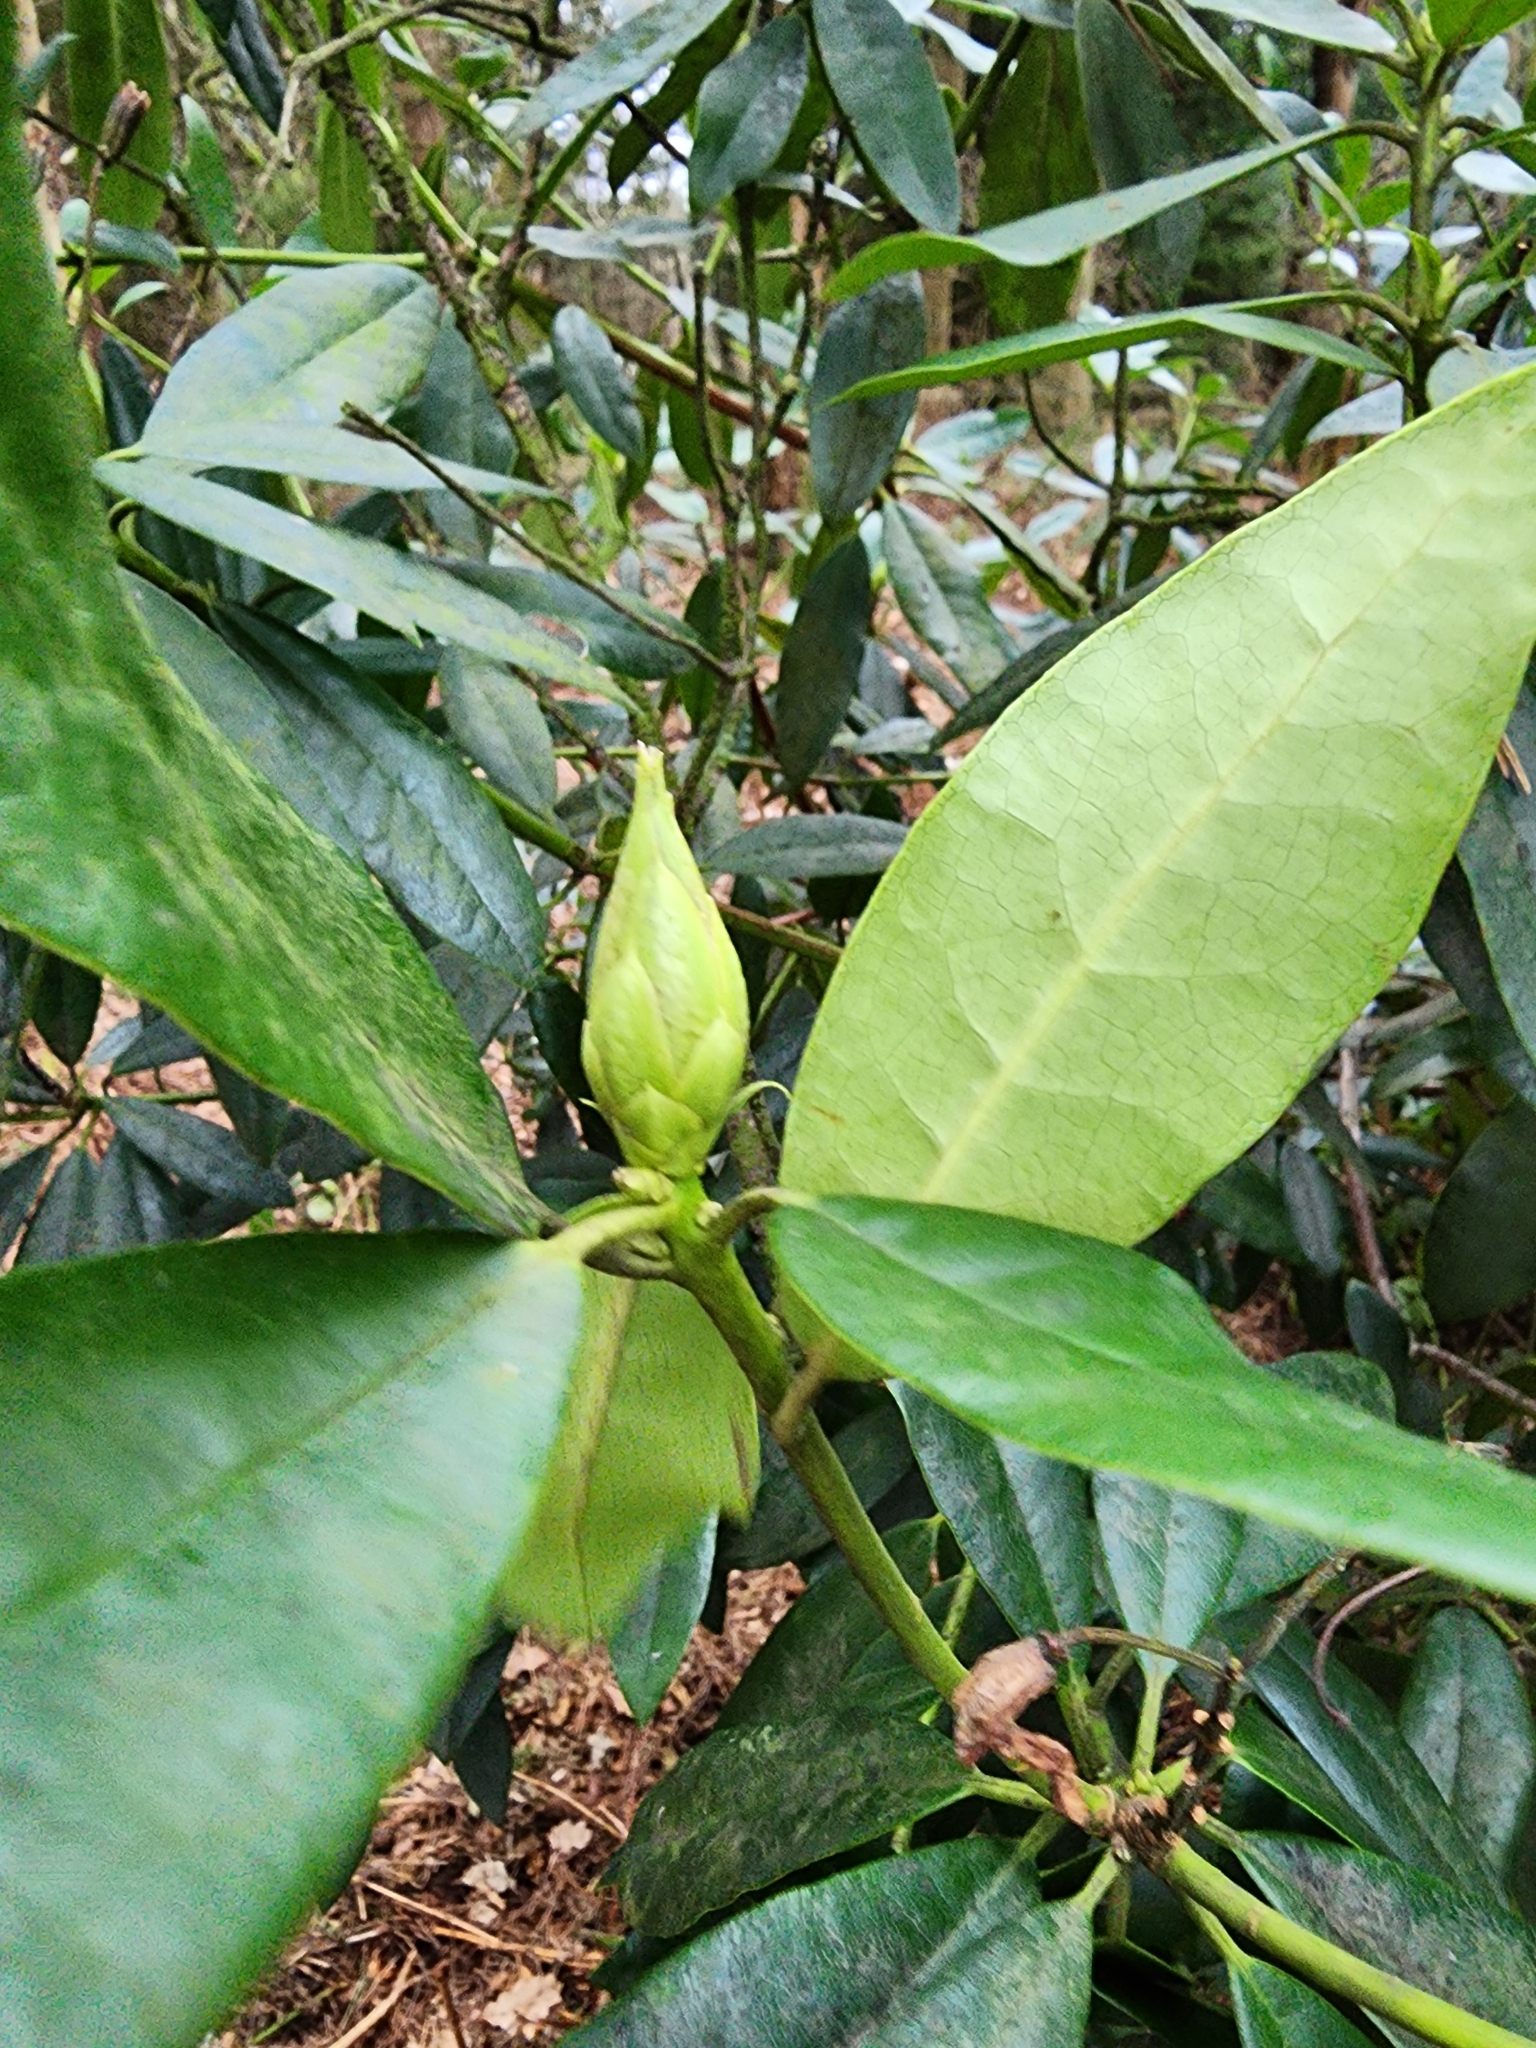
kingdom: Plantae
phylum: Tracheophyta
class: Magnoliopsida
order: Ericales
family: Ericaceae
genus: Rhododendron
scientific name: Rhododendron ponticum
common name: Rhododendron
